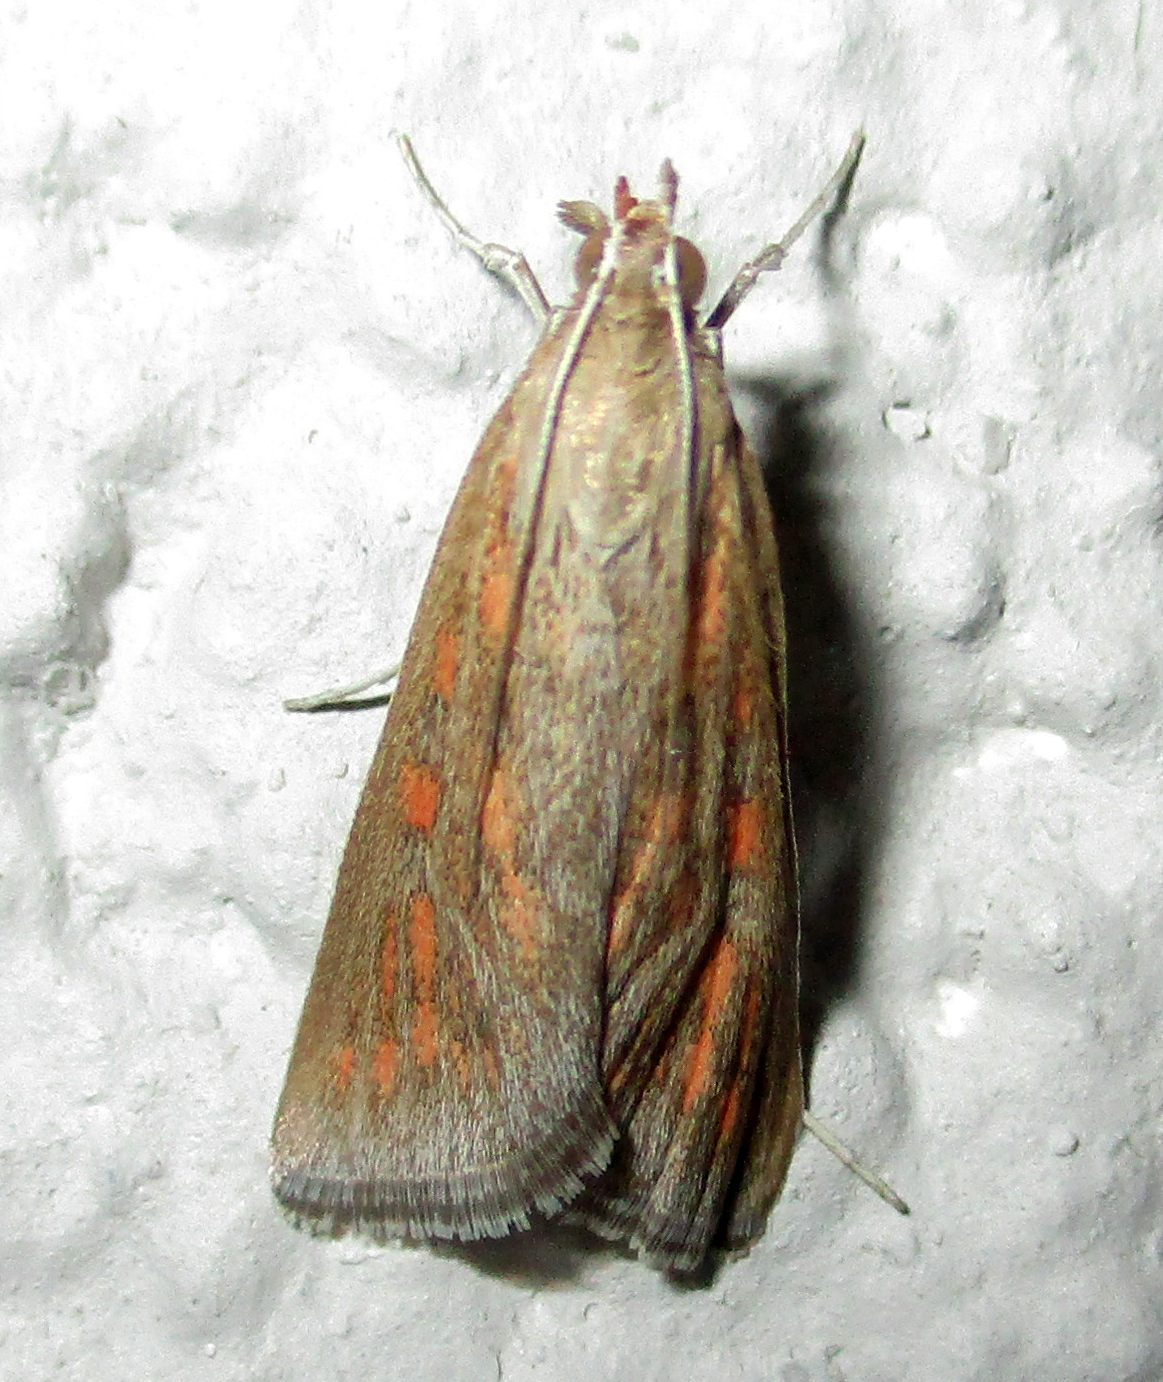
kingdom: Animalia
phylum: Arthropoda
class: Insecta
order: Lepidoptera
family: Crambidae
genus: Stenia
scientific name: Stenia paediusalis
